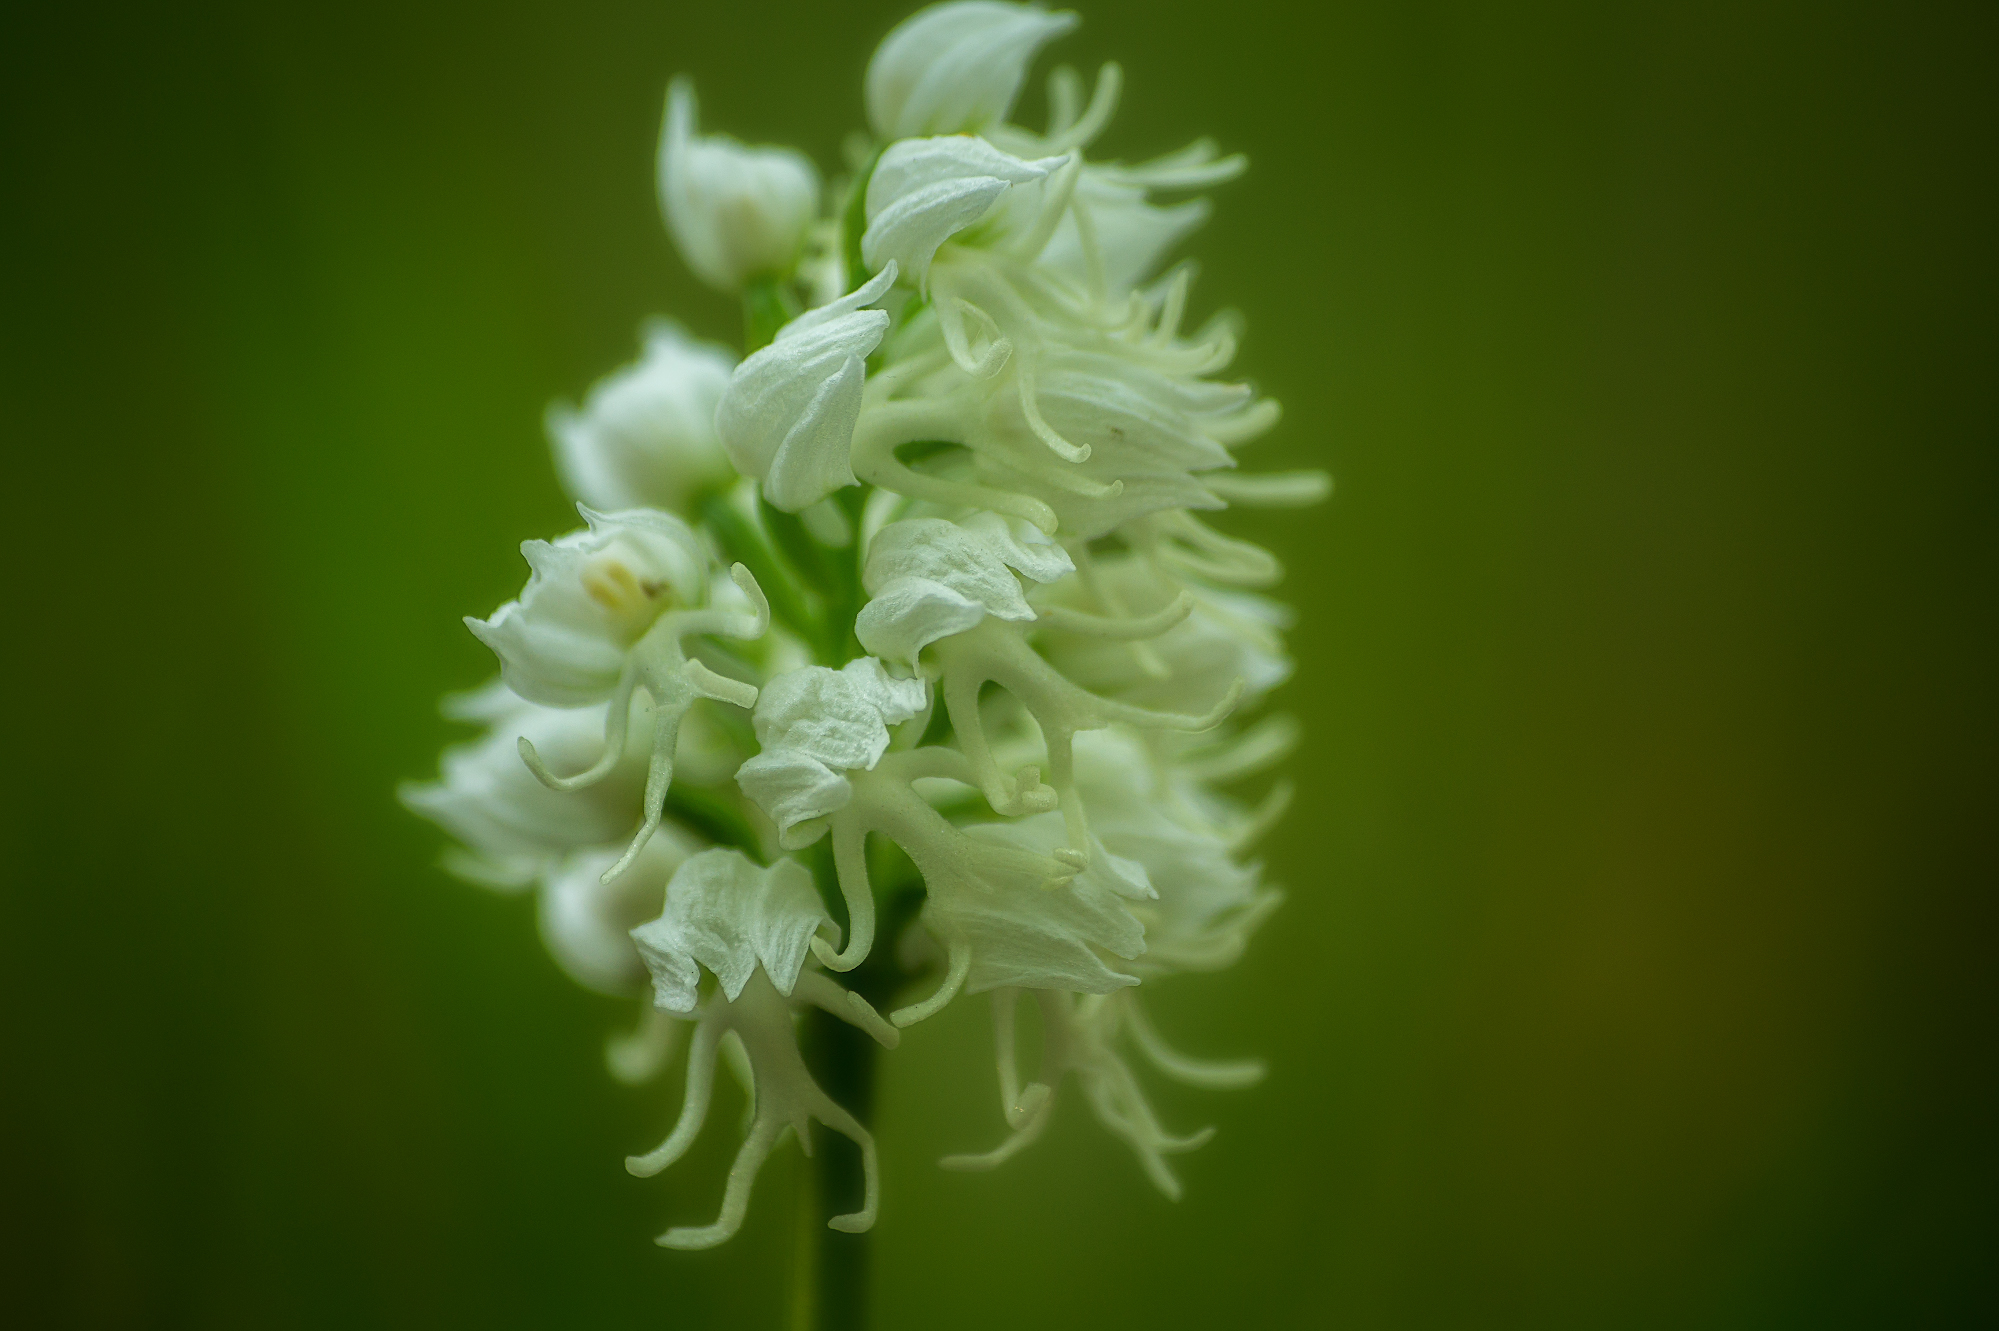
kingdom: Plantae
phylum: Tracheophyta
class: Liliopsida
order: Asparagales
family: Orchidaceae
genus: Orchis
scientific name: Orchis simia
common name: Monkey orchid
